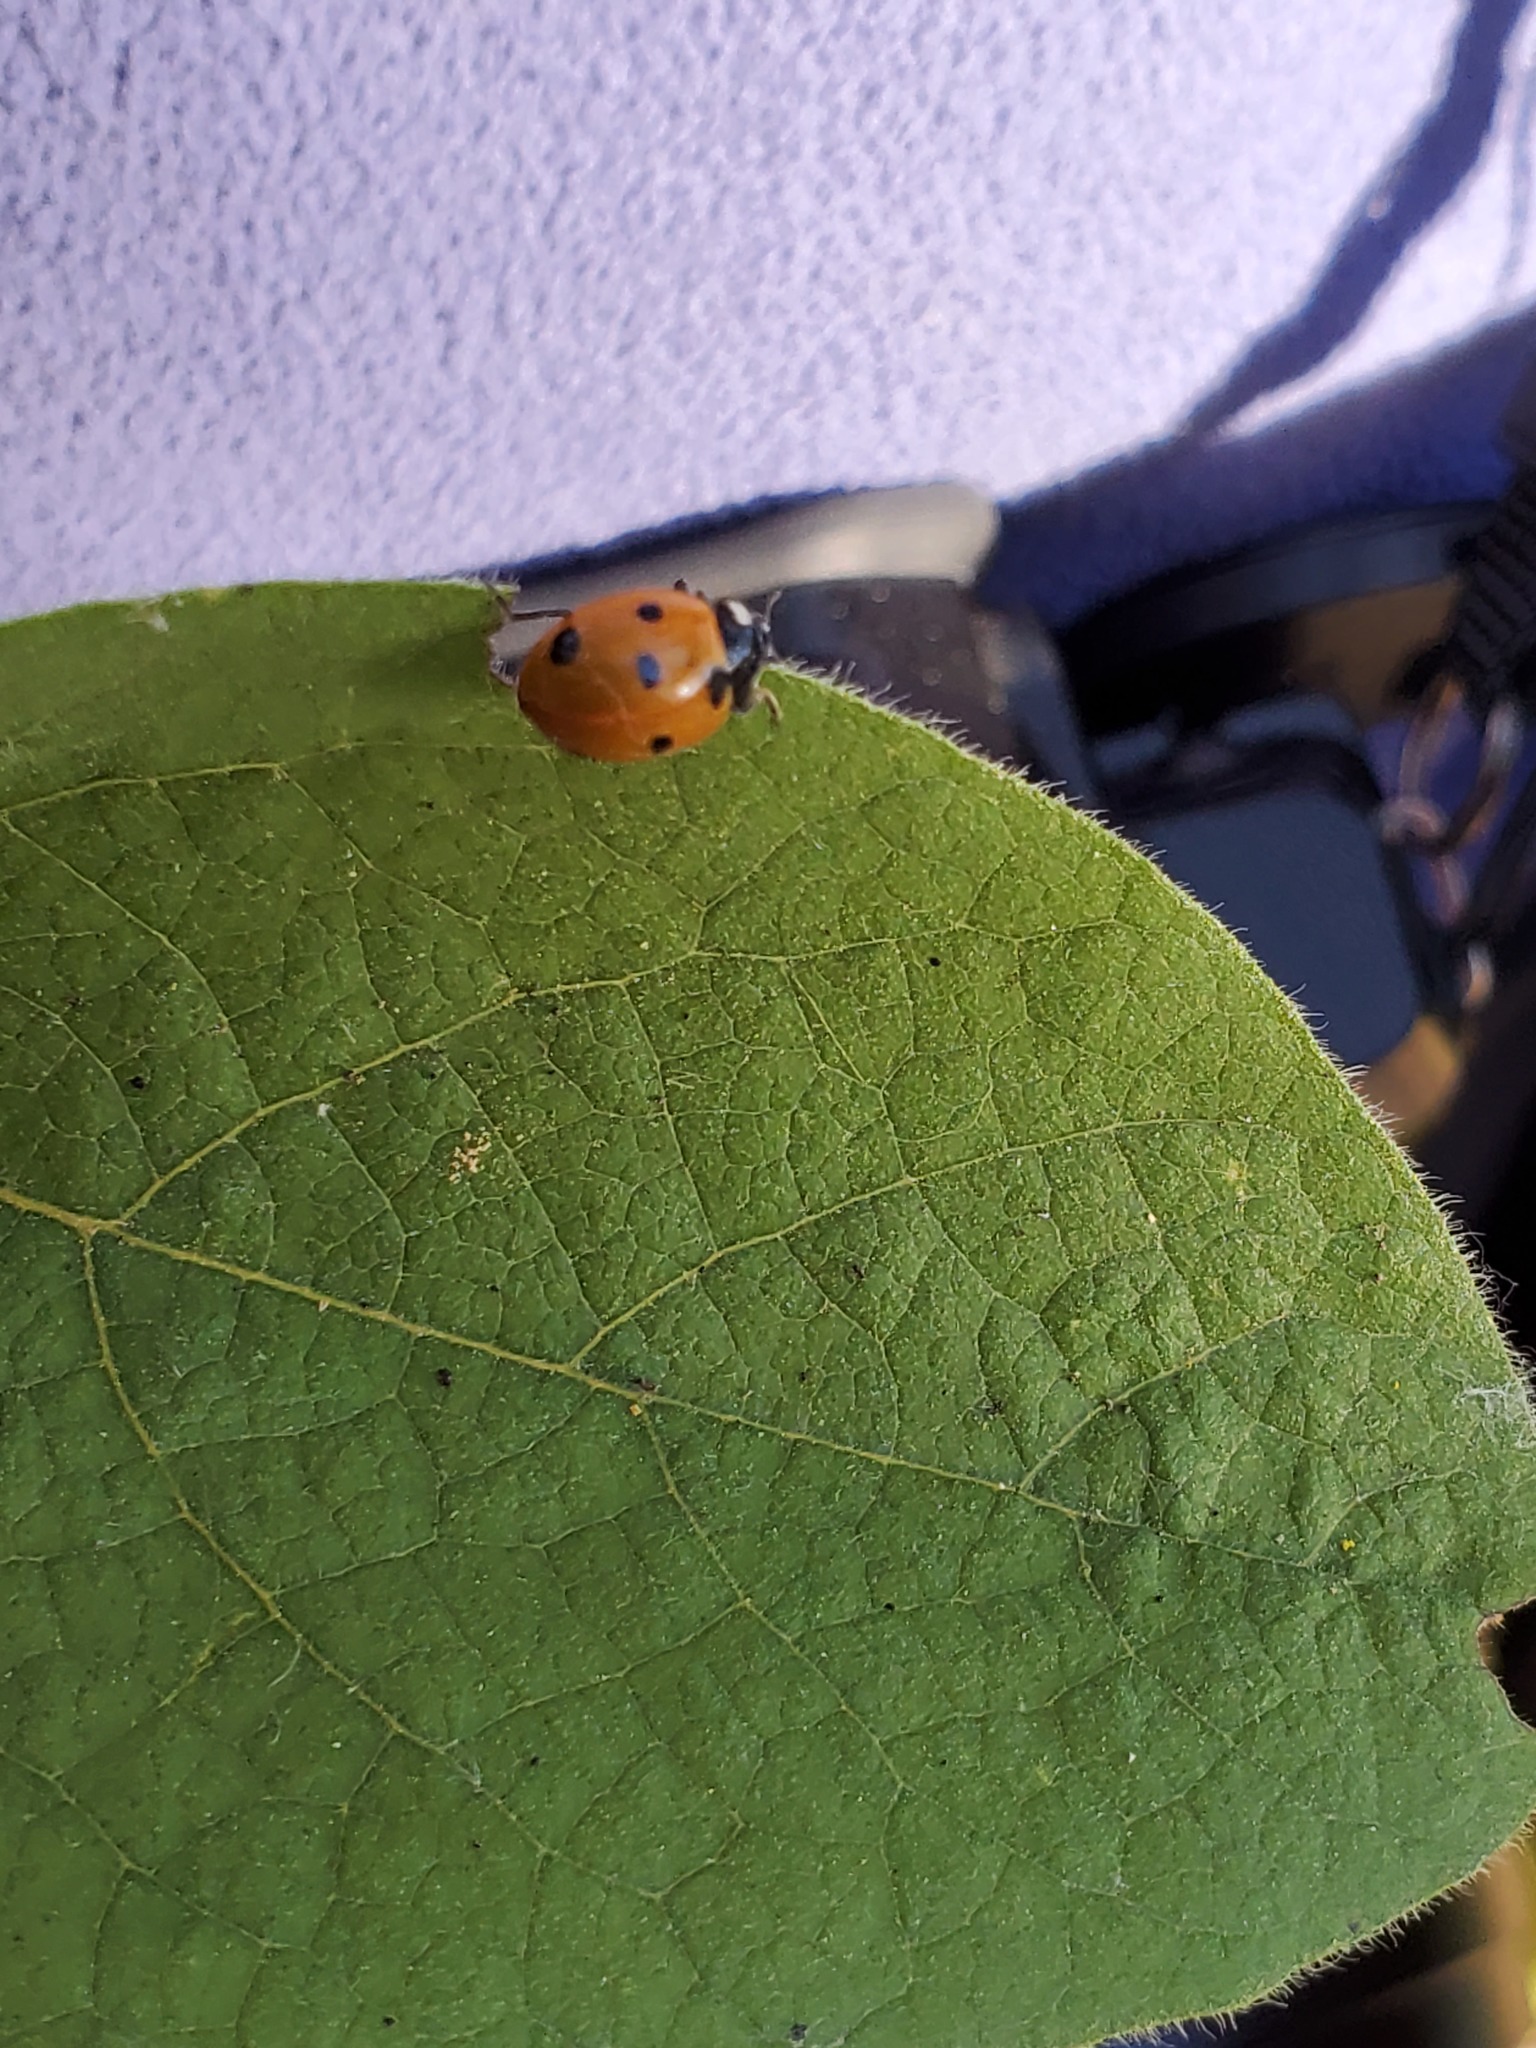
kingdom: Animalia
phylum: Arthropoda
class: Insecta
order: Coleoptera
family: Coccinellidae
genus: Coccinella
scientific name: Coccinella septempunctata
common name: Sevenspotted lady beetle
